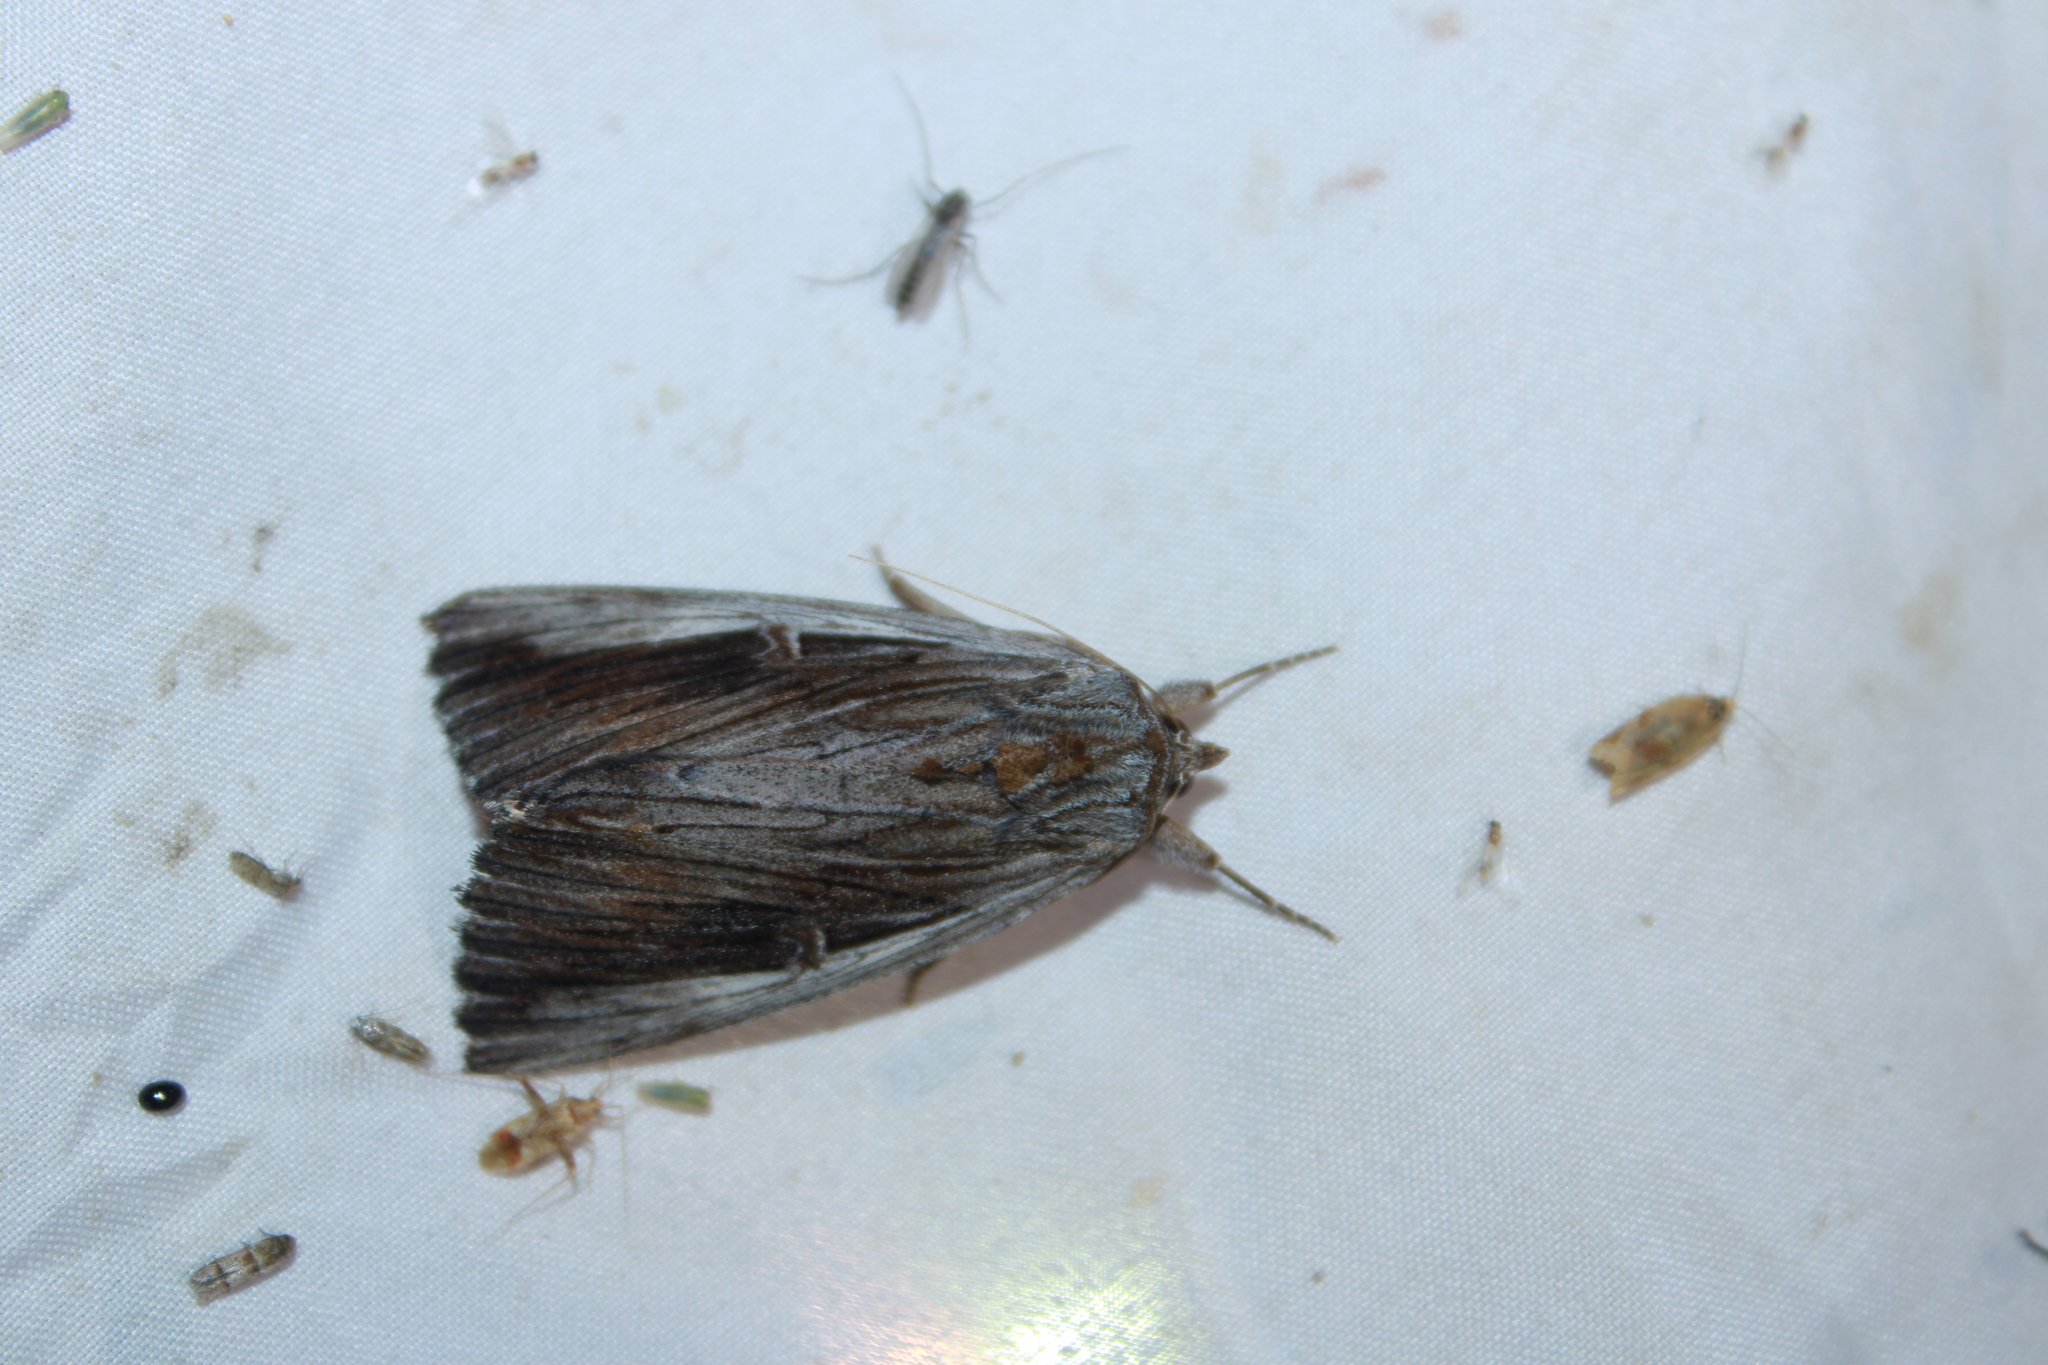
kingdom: Animalia
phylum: Arthropoda
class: Insecta
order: Lepidoptera
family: Erebidae
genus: Catocala
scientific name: Catocala herodias
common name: Pine barrens underwing
